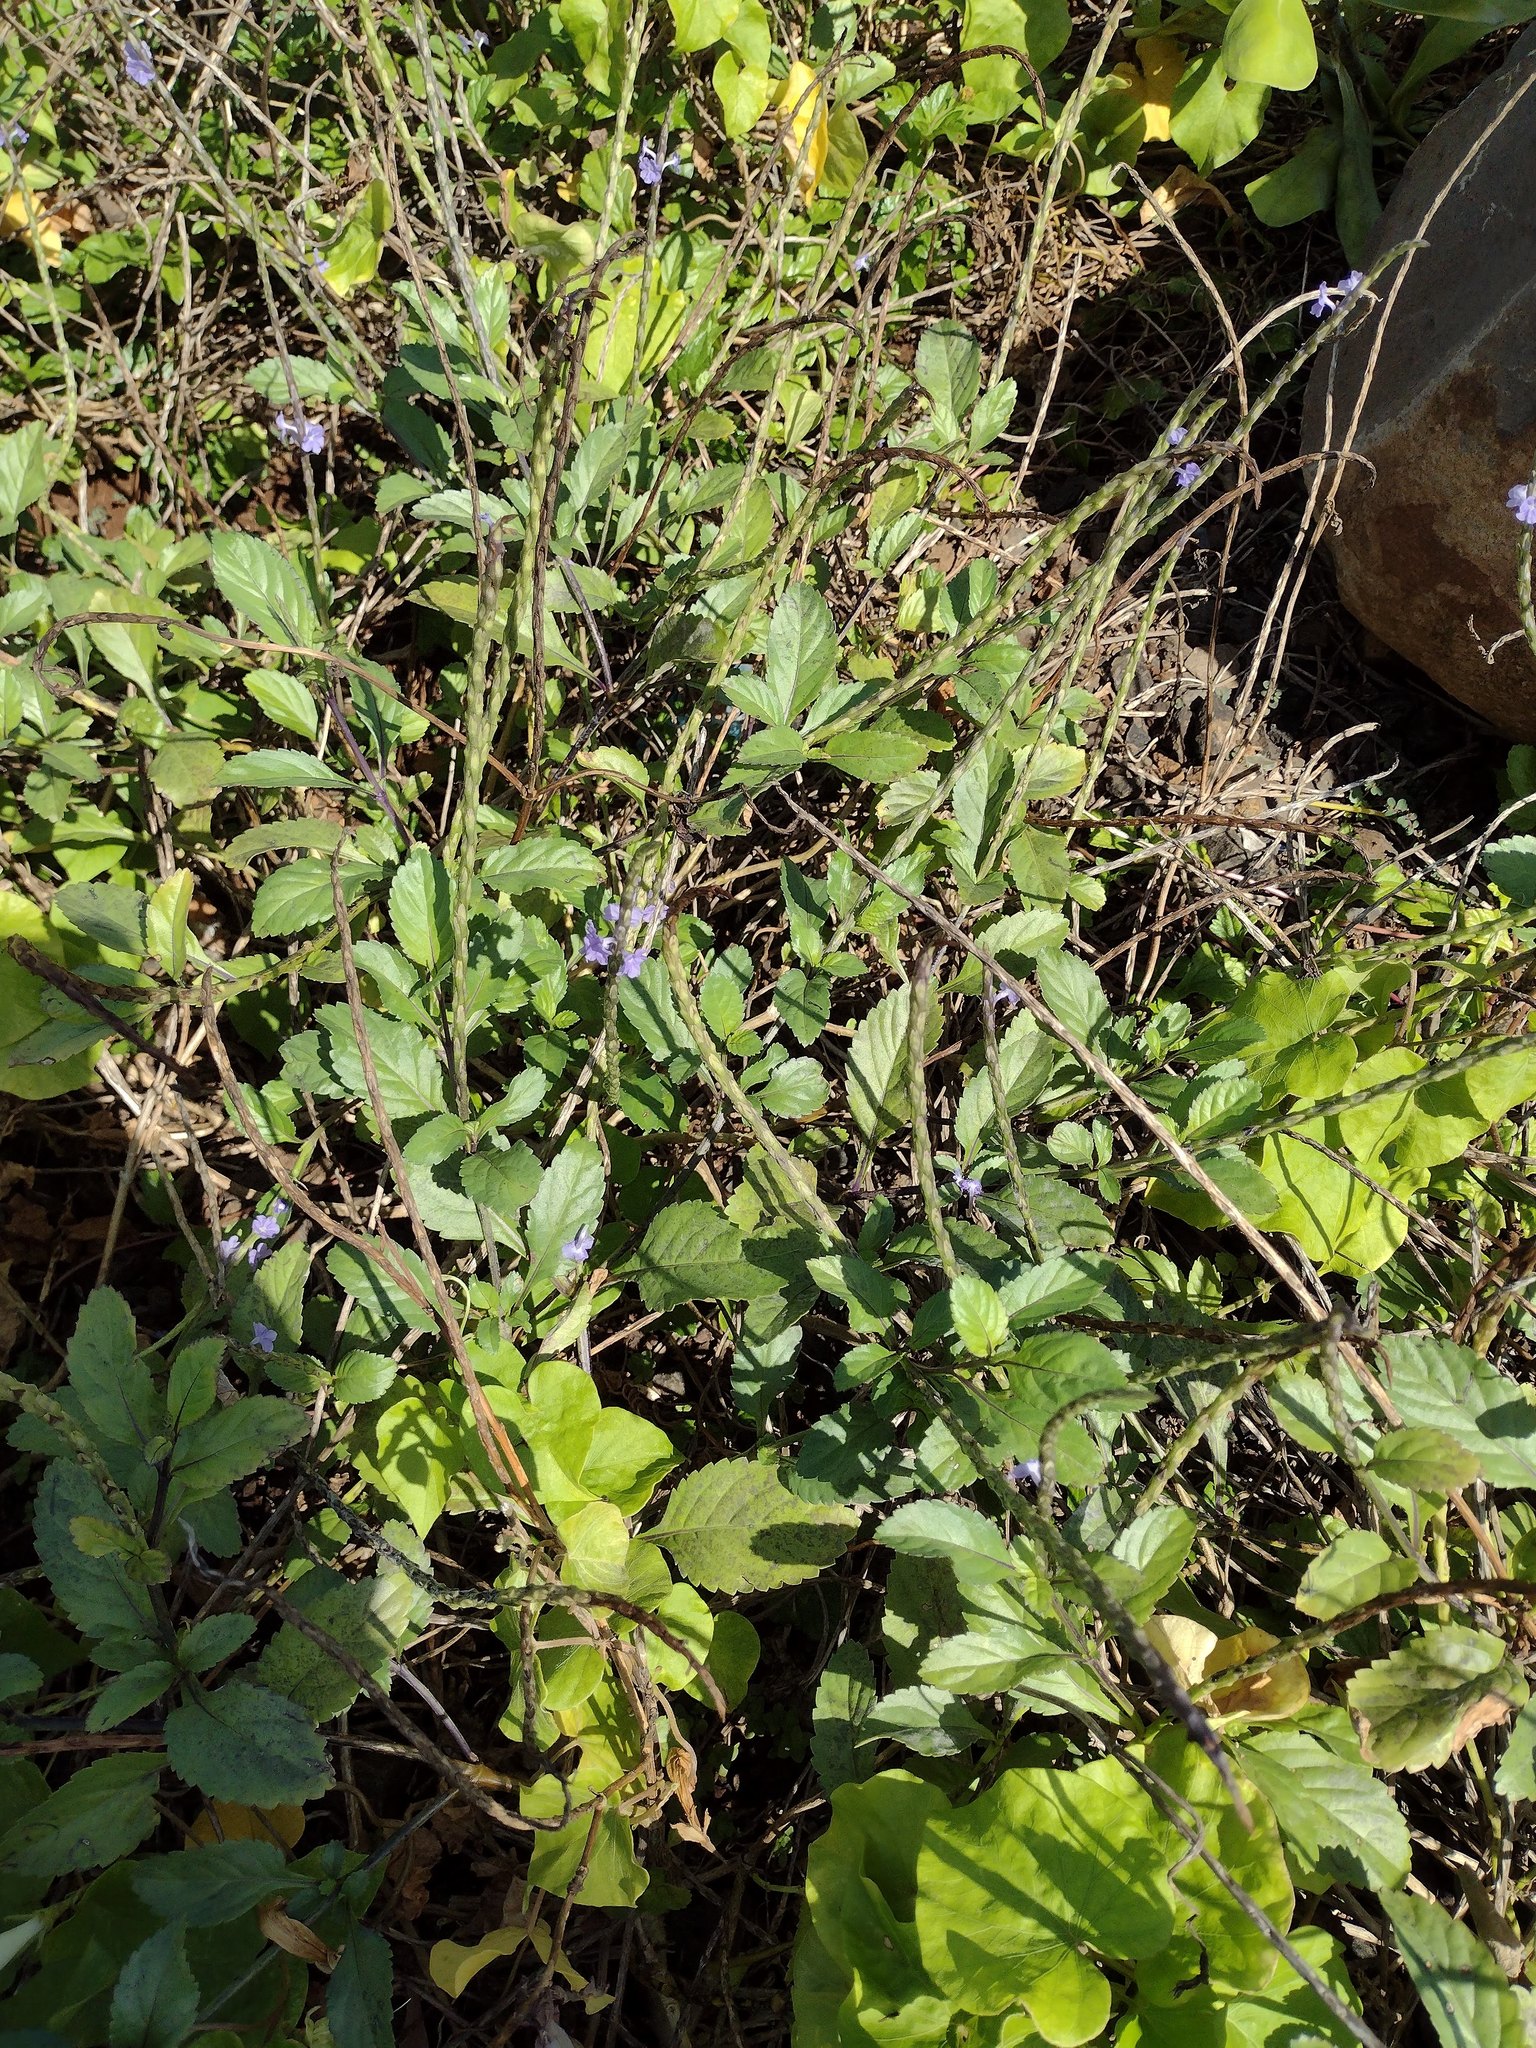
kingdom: Plantae
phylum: Tracheophyta
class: Magnoliopsida
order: Lamiales
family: Verbenaceae
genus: Stachytarpheta
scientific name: Stachytarpheta jamaicensis
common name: Light-blue snakeweed
